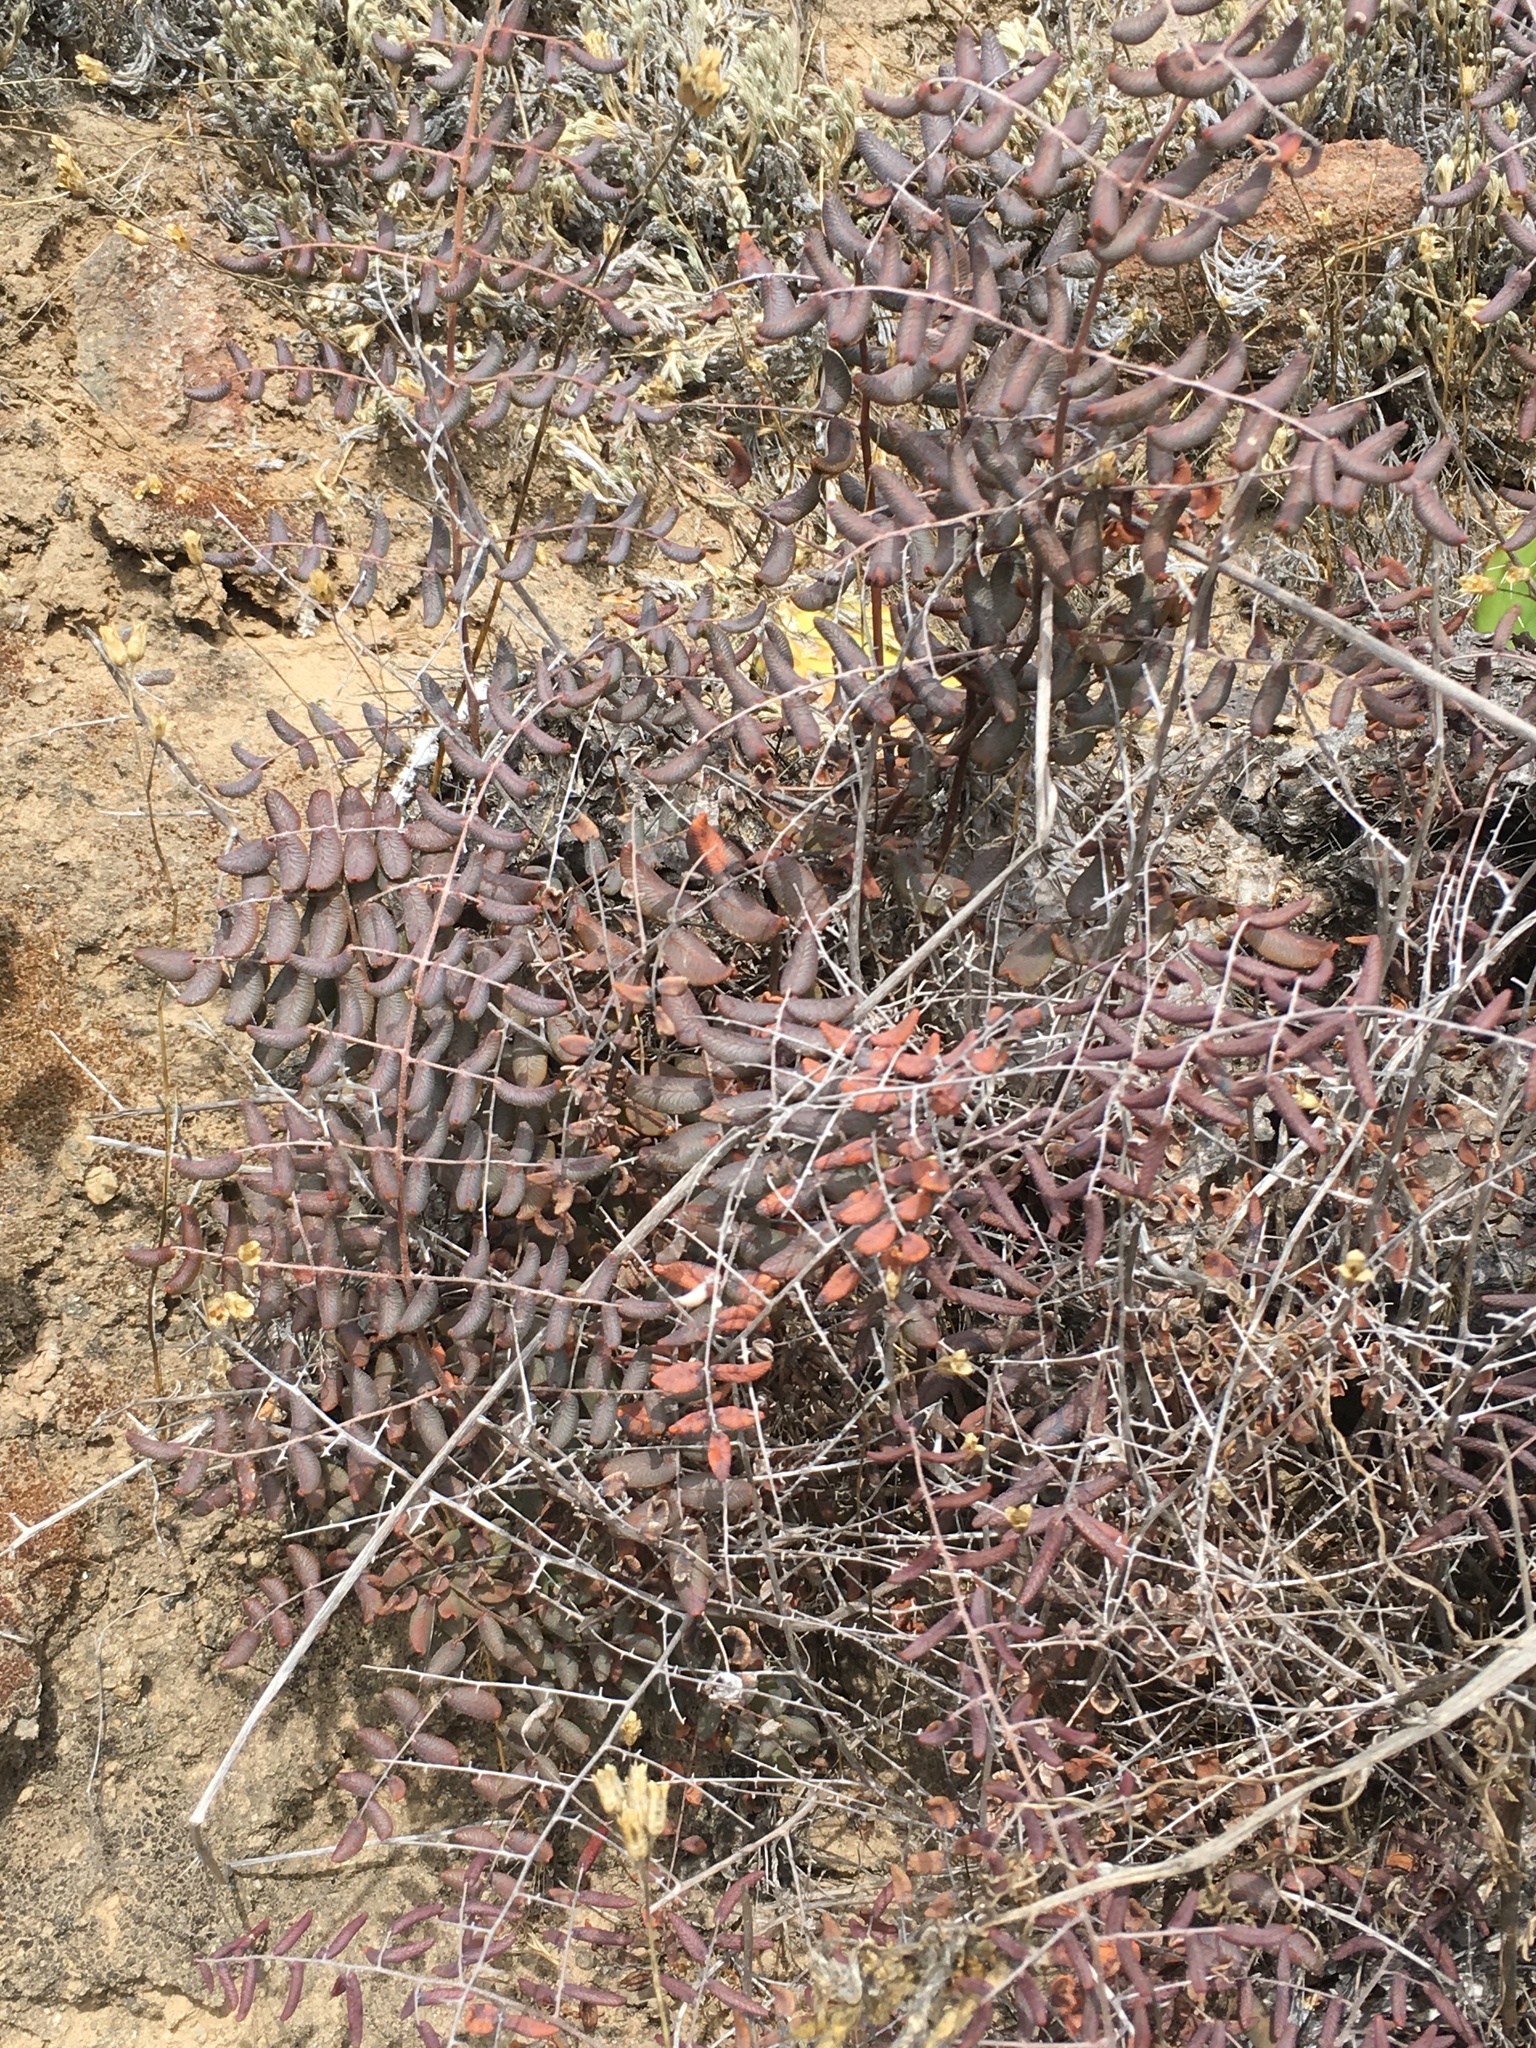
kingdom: Plantae
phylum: Tracheophyta
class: Polypodiopsida
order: Polypodiales
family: Pteridaceae
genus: Pellaea
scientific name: Pellaea andromedifolia
